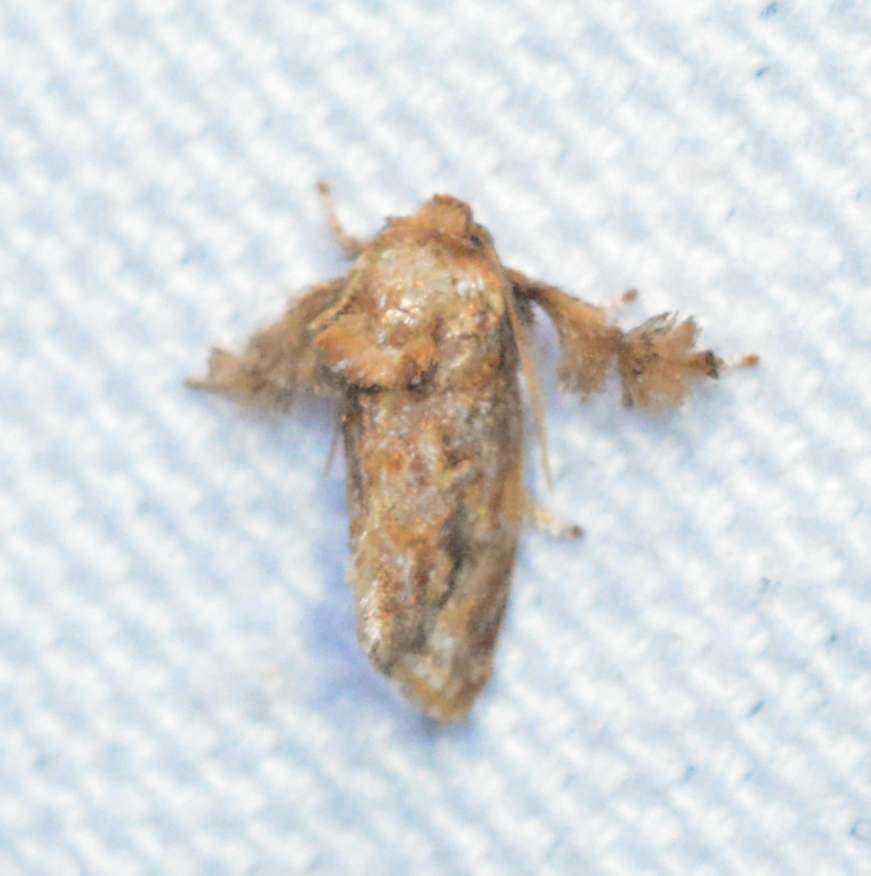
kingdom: Animalia
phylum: Arthropoda
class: Insecta
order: Lepidoptera
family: Limacodidae
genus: Isochaetes
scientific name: Isochaetes beutenmuelleri
